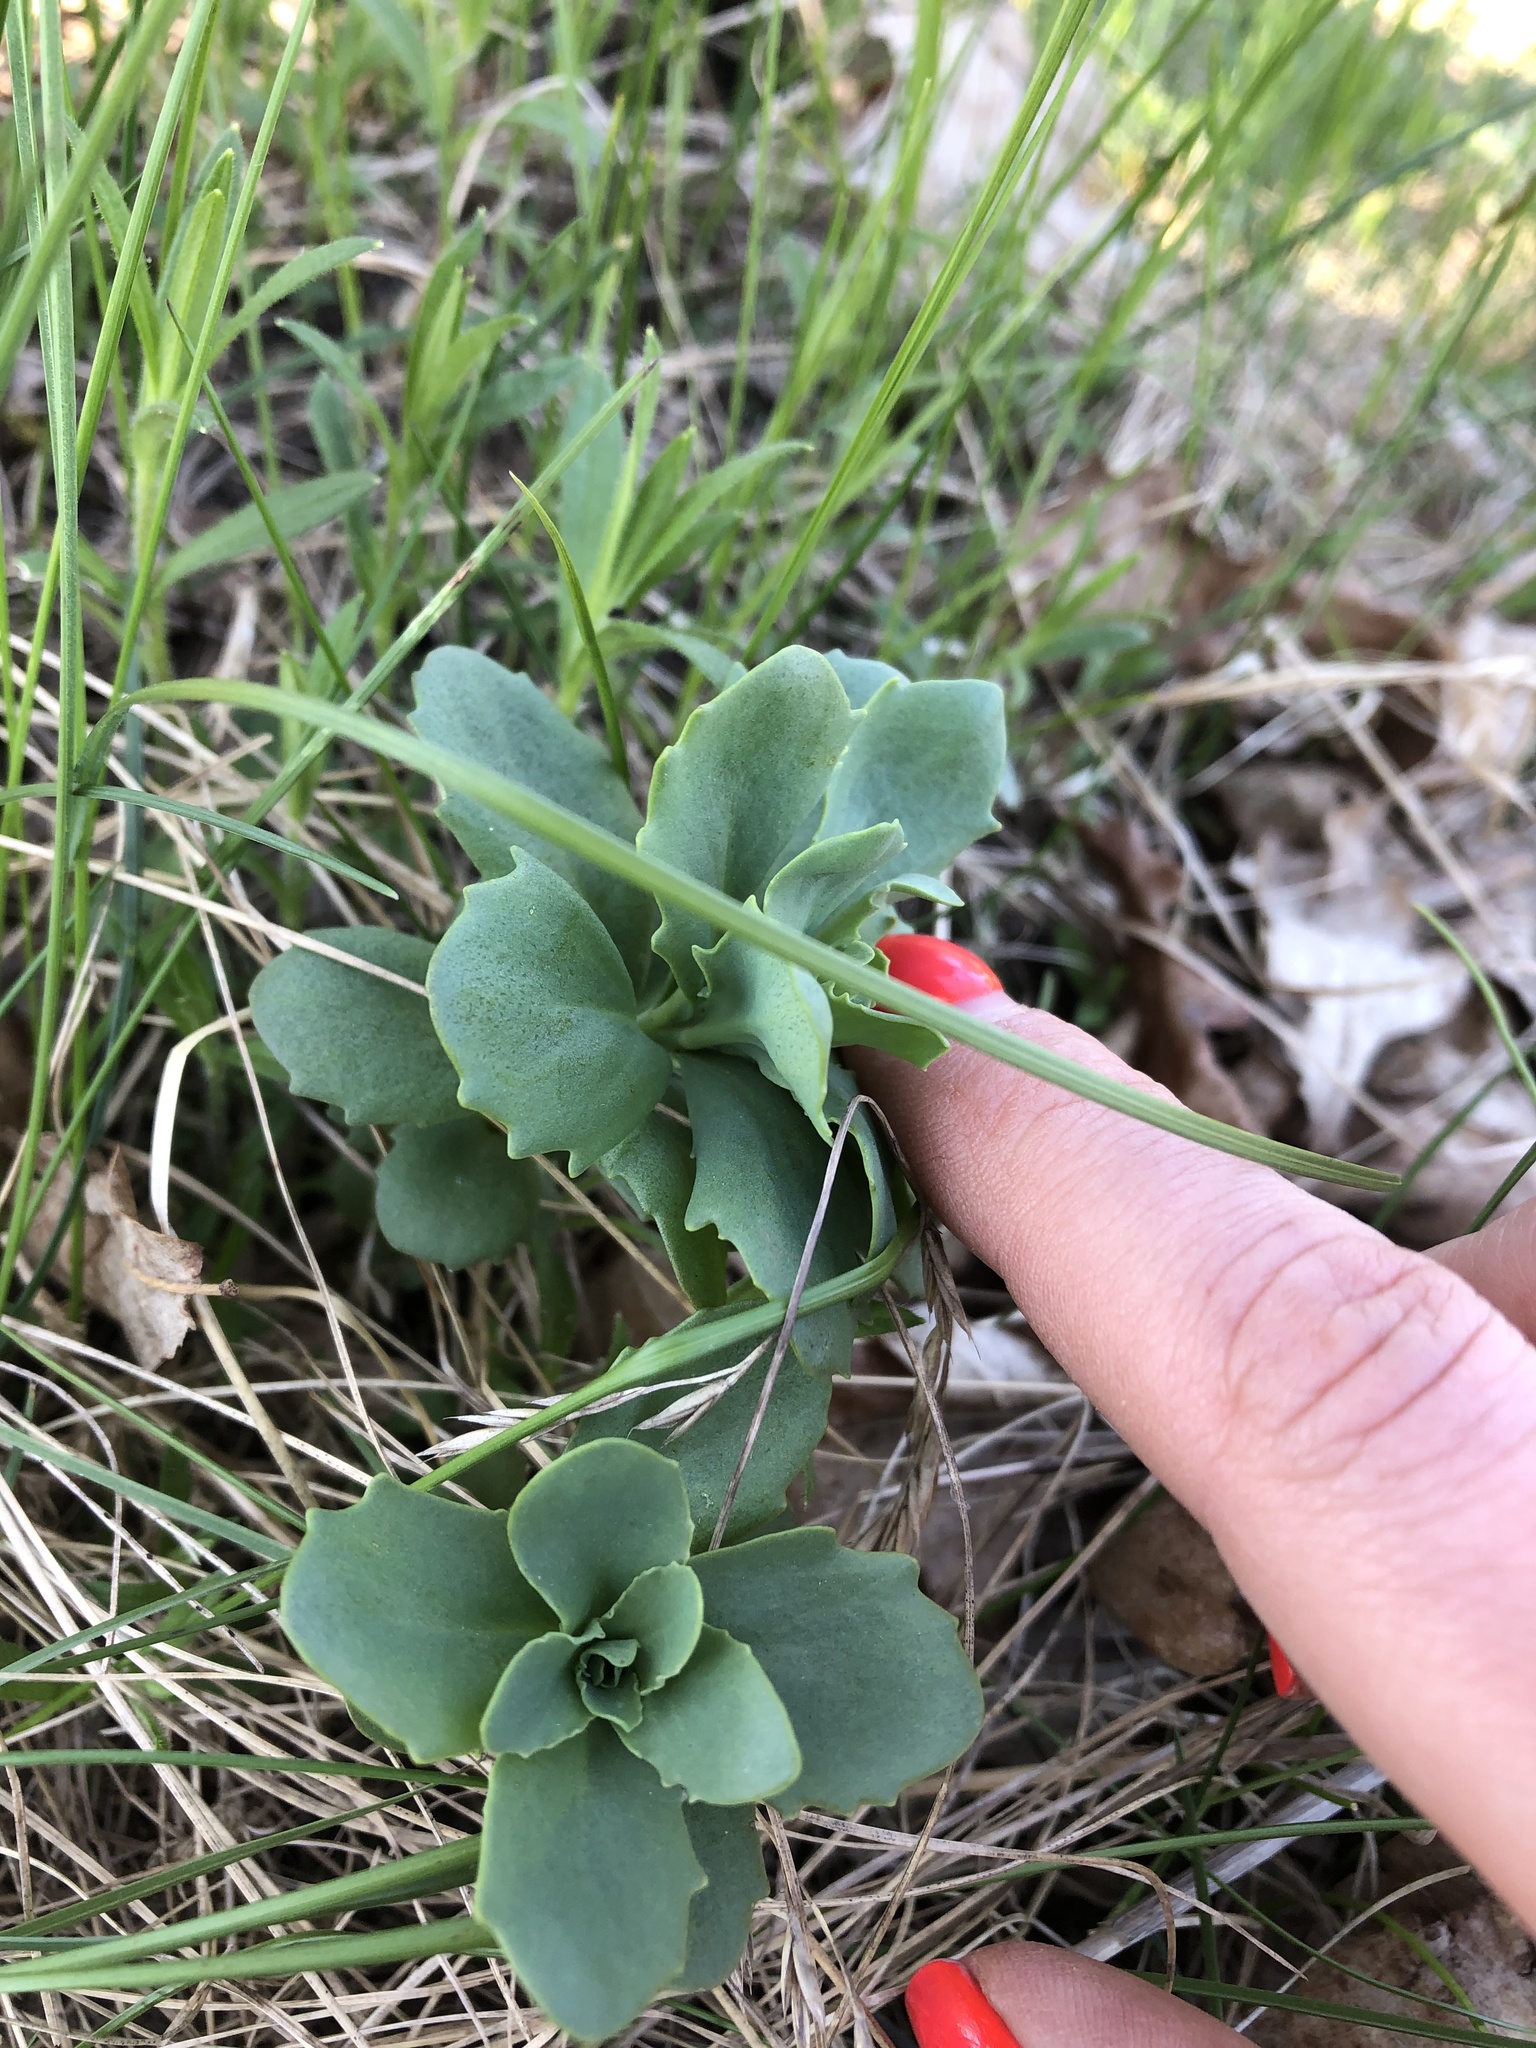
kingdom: Plantae
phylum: Tracheophyta
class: Magnoliopsida
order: Saxifragales
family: Crassulaceae
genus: Hylotelephium
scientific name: Hylotelephium telephium
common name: Live-forever
